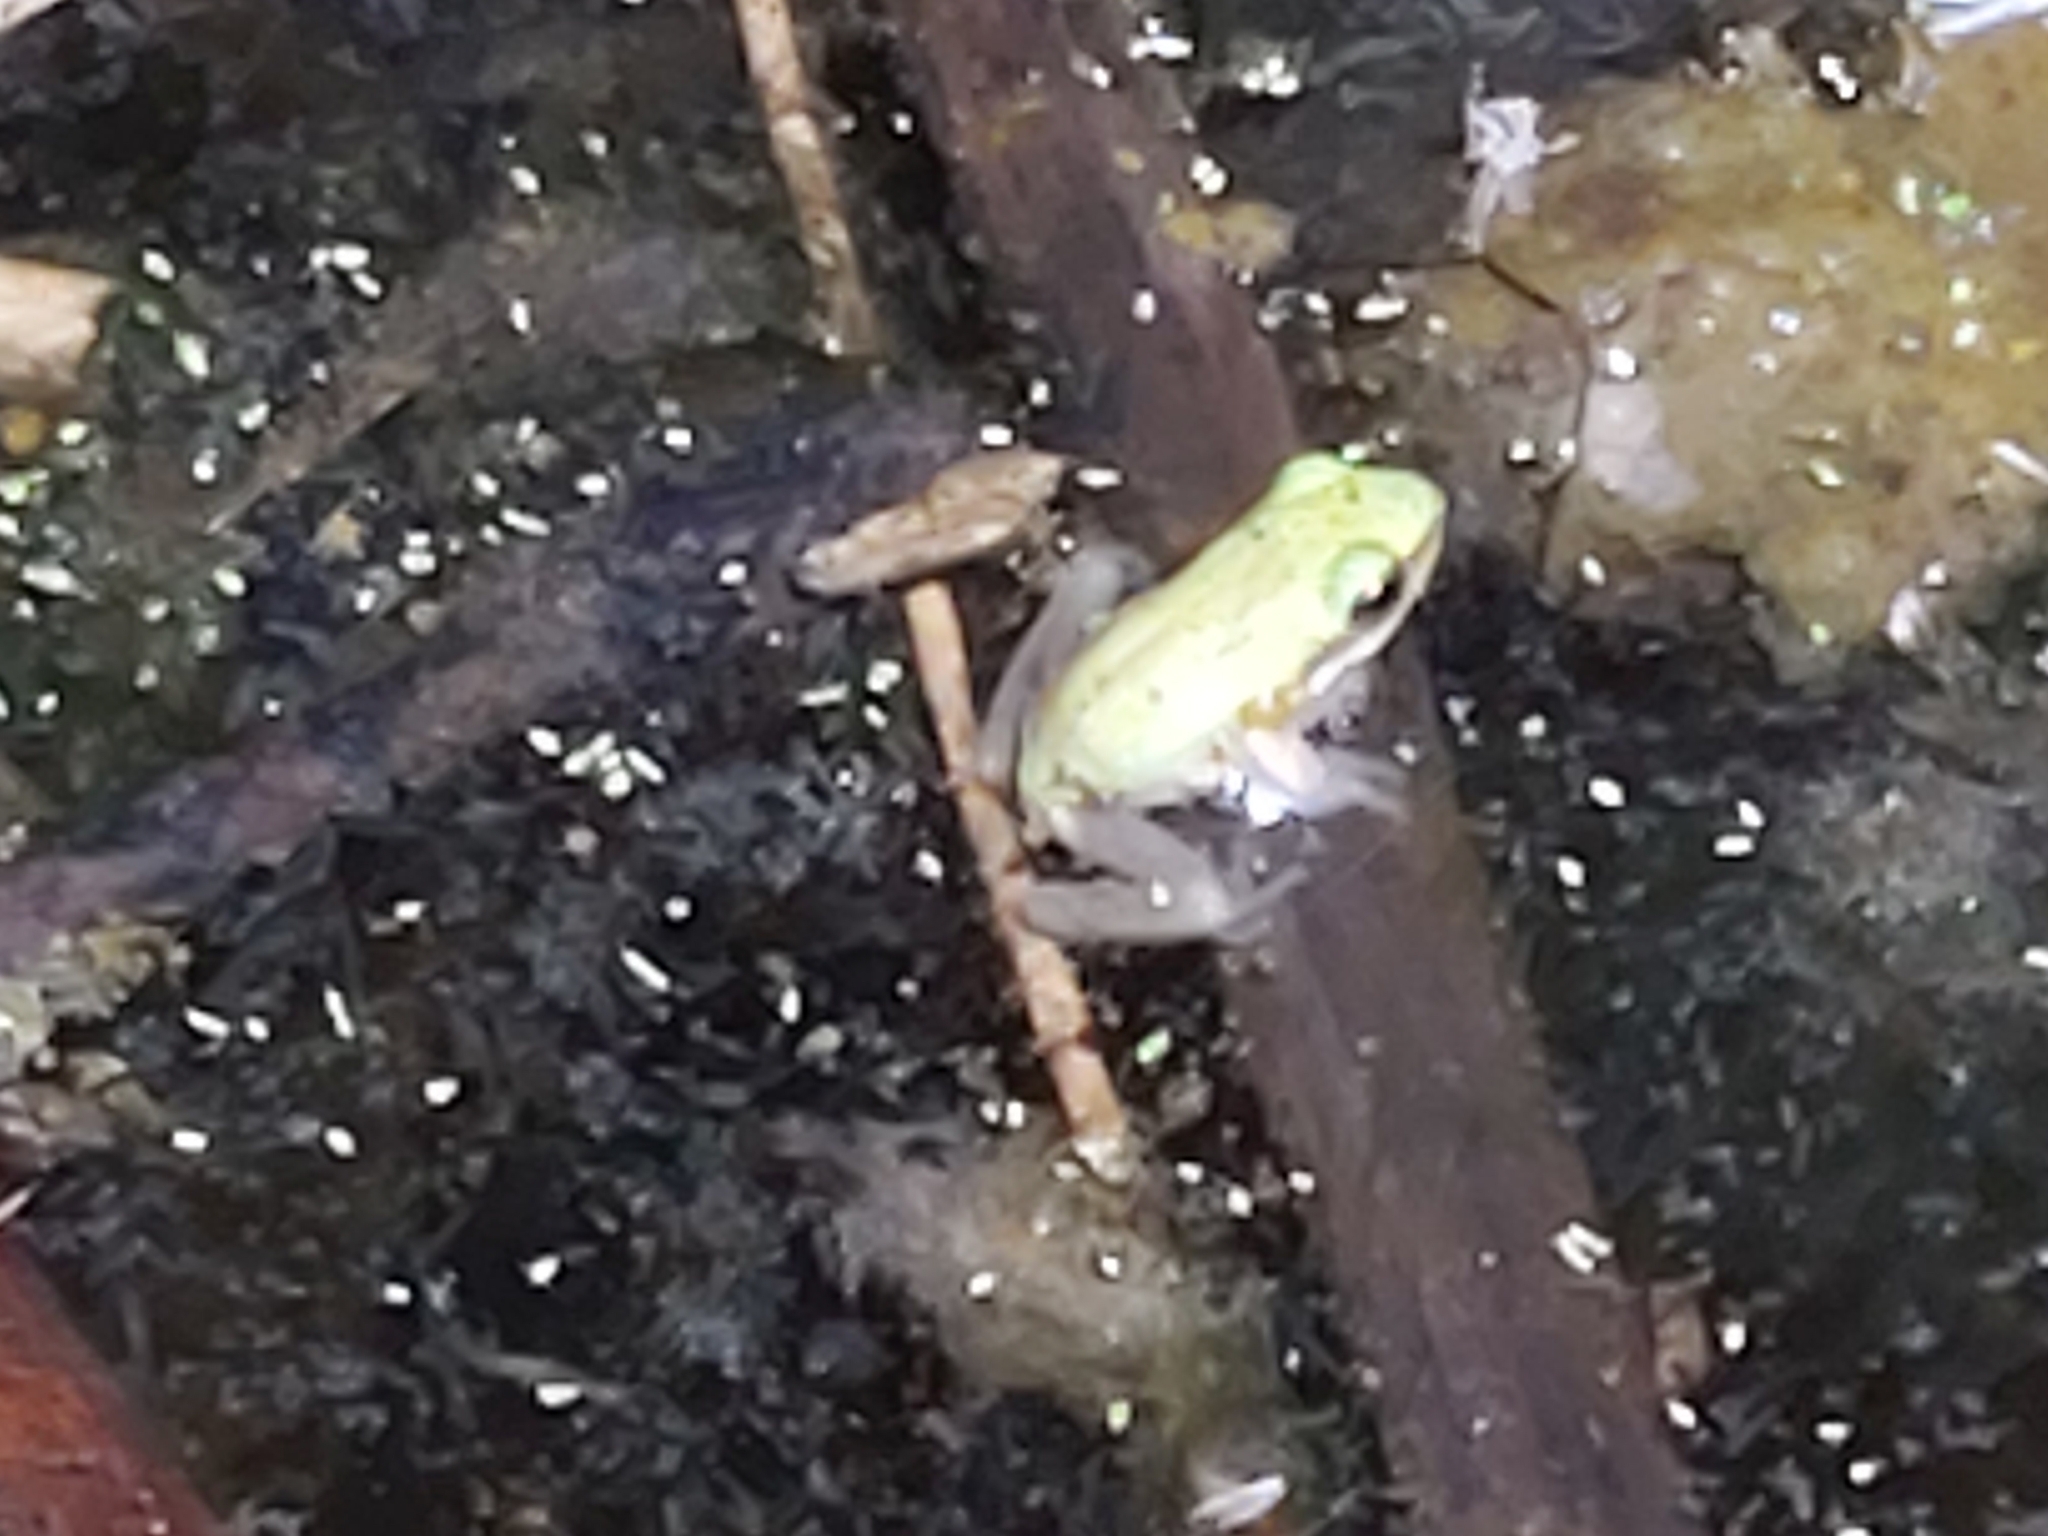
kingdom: Animalia
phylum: Chordata
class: Amphibia
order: Anura
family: Pelodryadidae
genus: Litoria
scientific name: Litoria fallax
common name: Eastern dwarf treefrog
